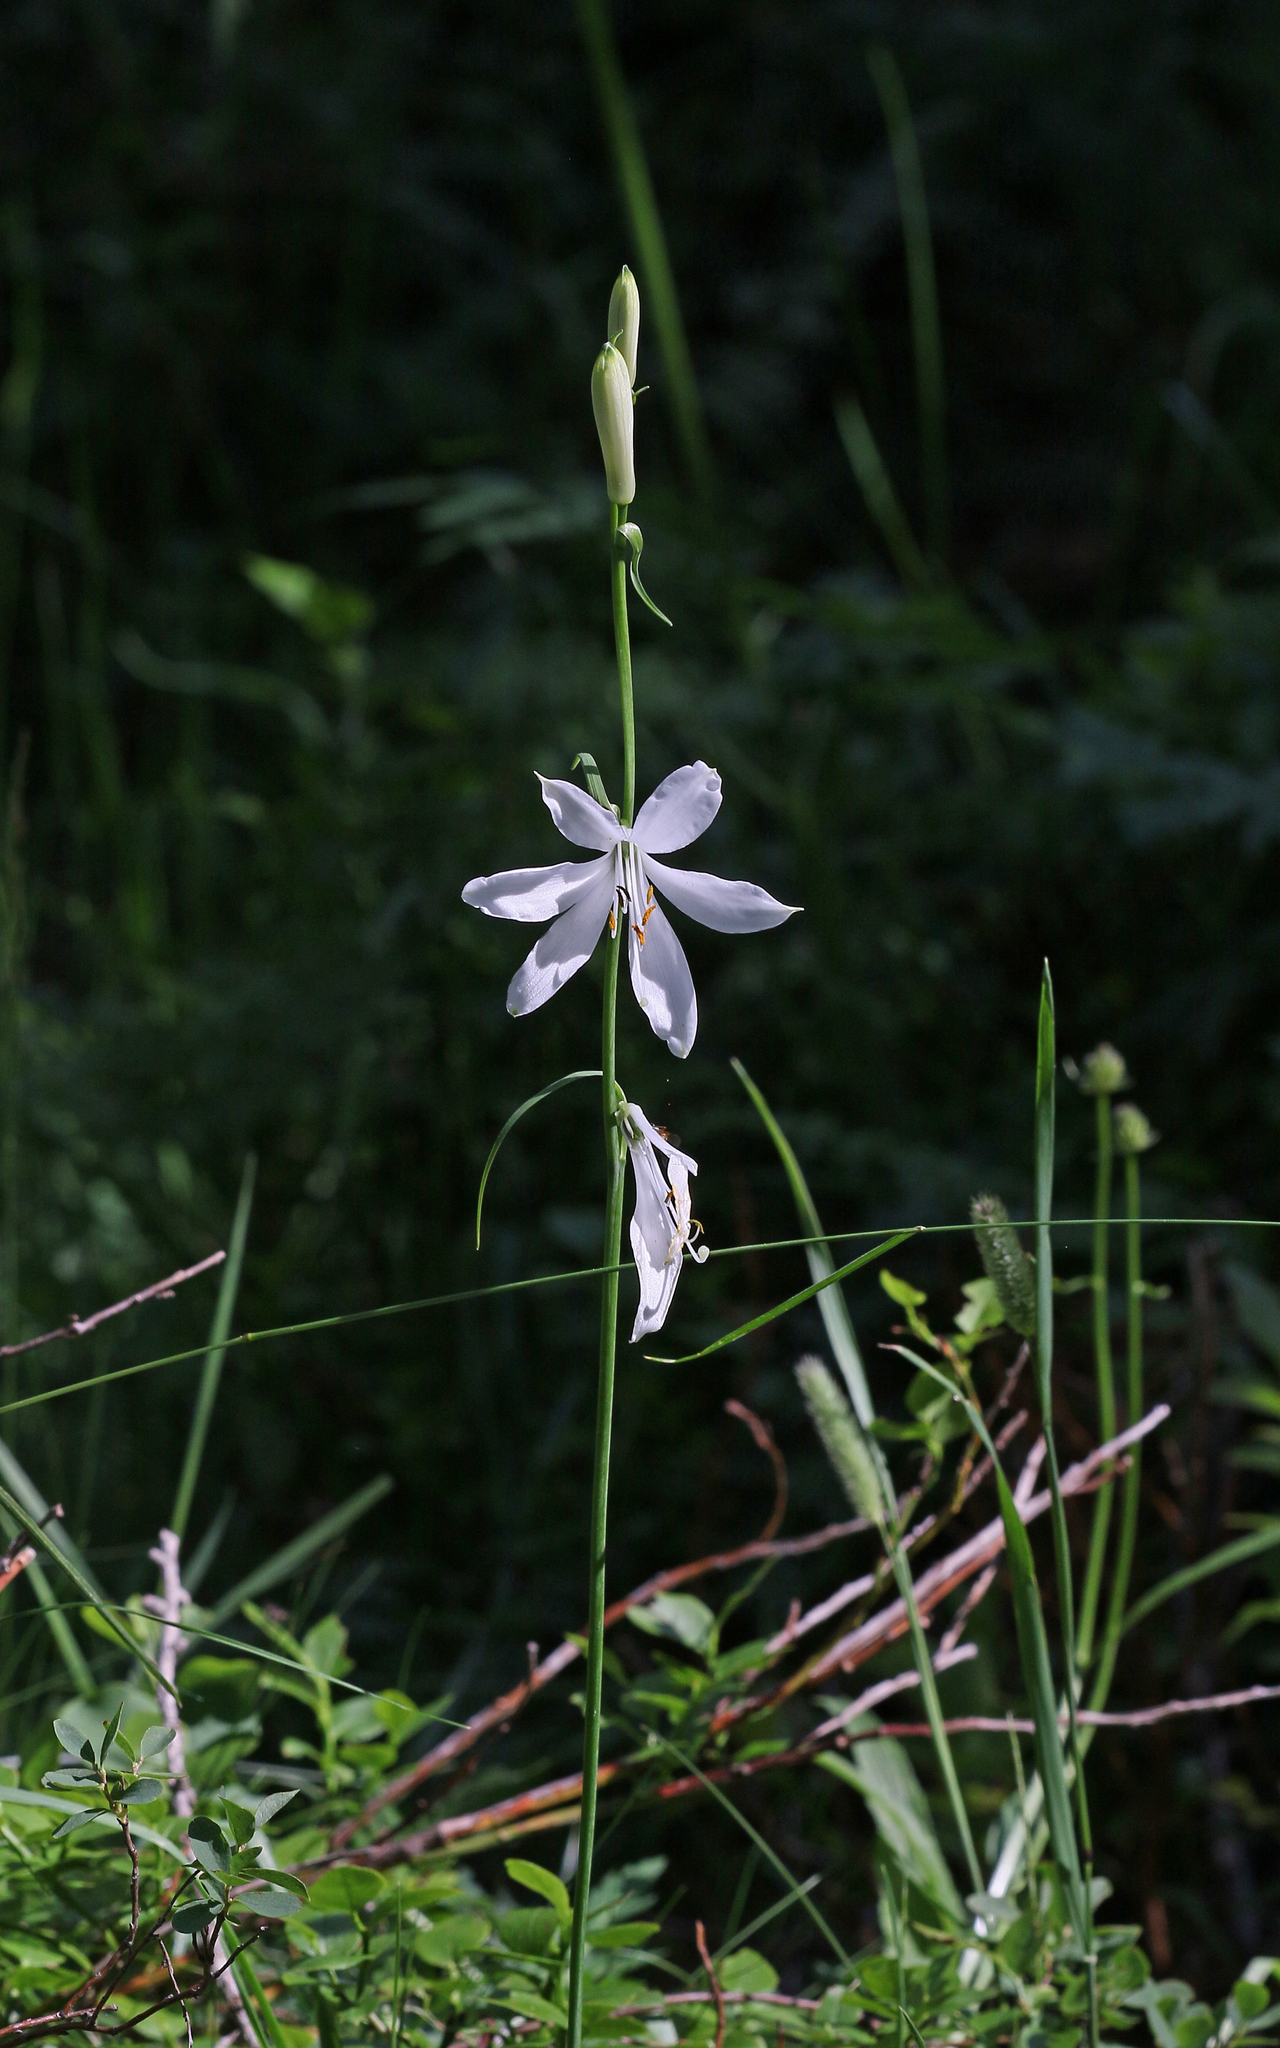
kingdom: Plantae
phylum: Tracheophyta
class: Liliopsida
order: Asparagales
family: Asparagaceae
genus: Anthericum
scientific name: Anthericum liliago
